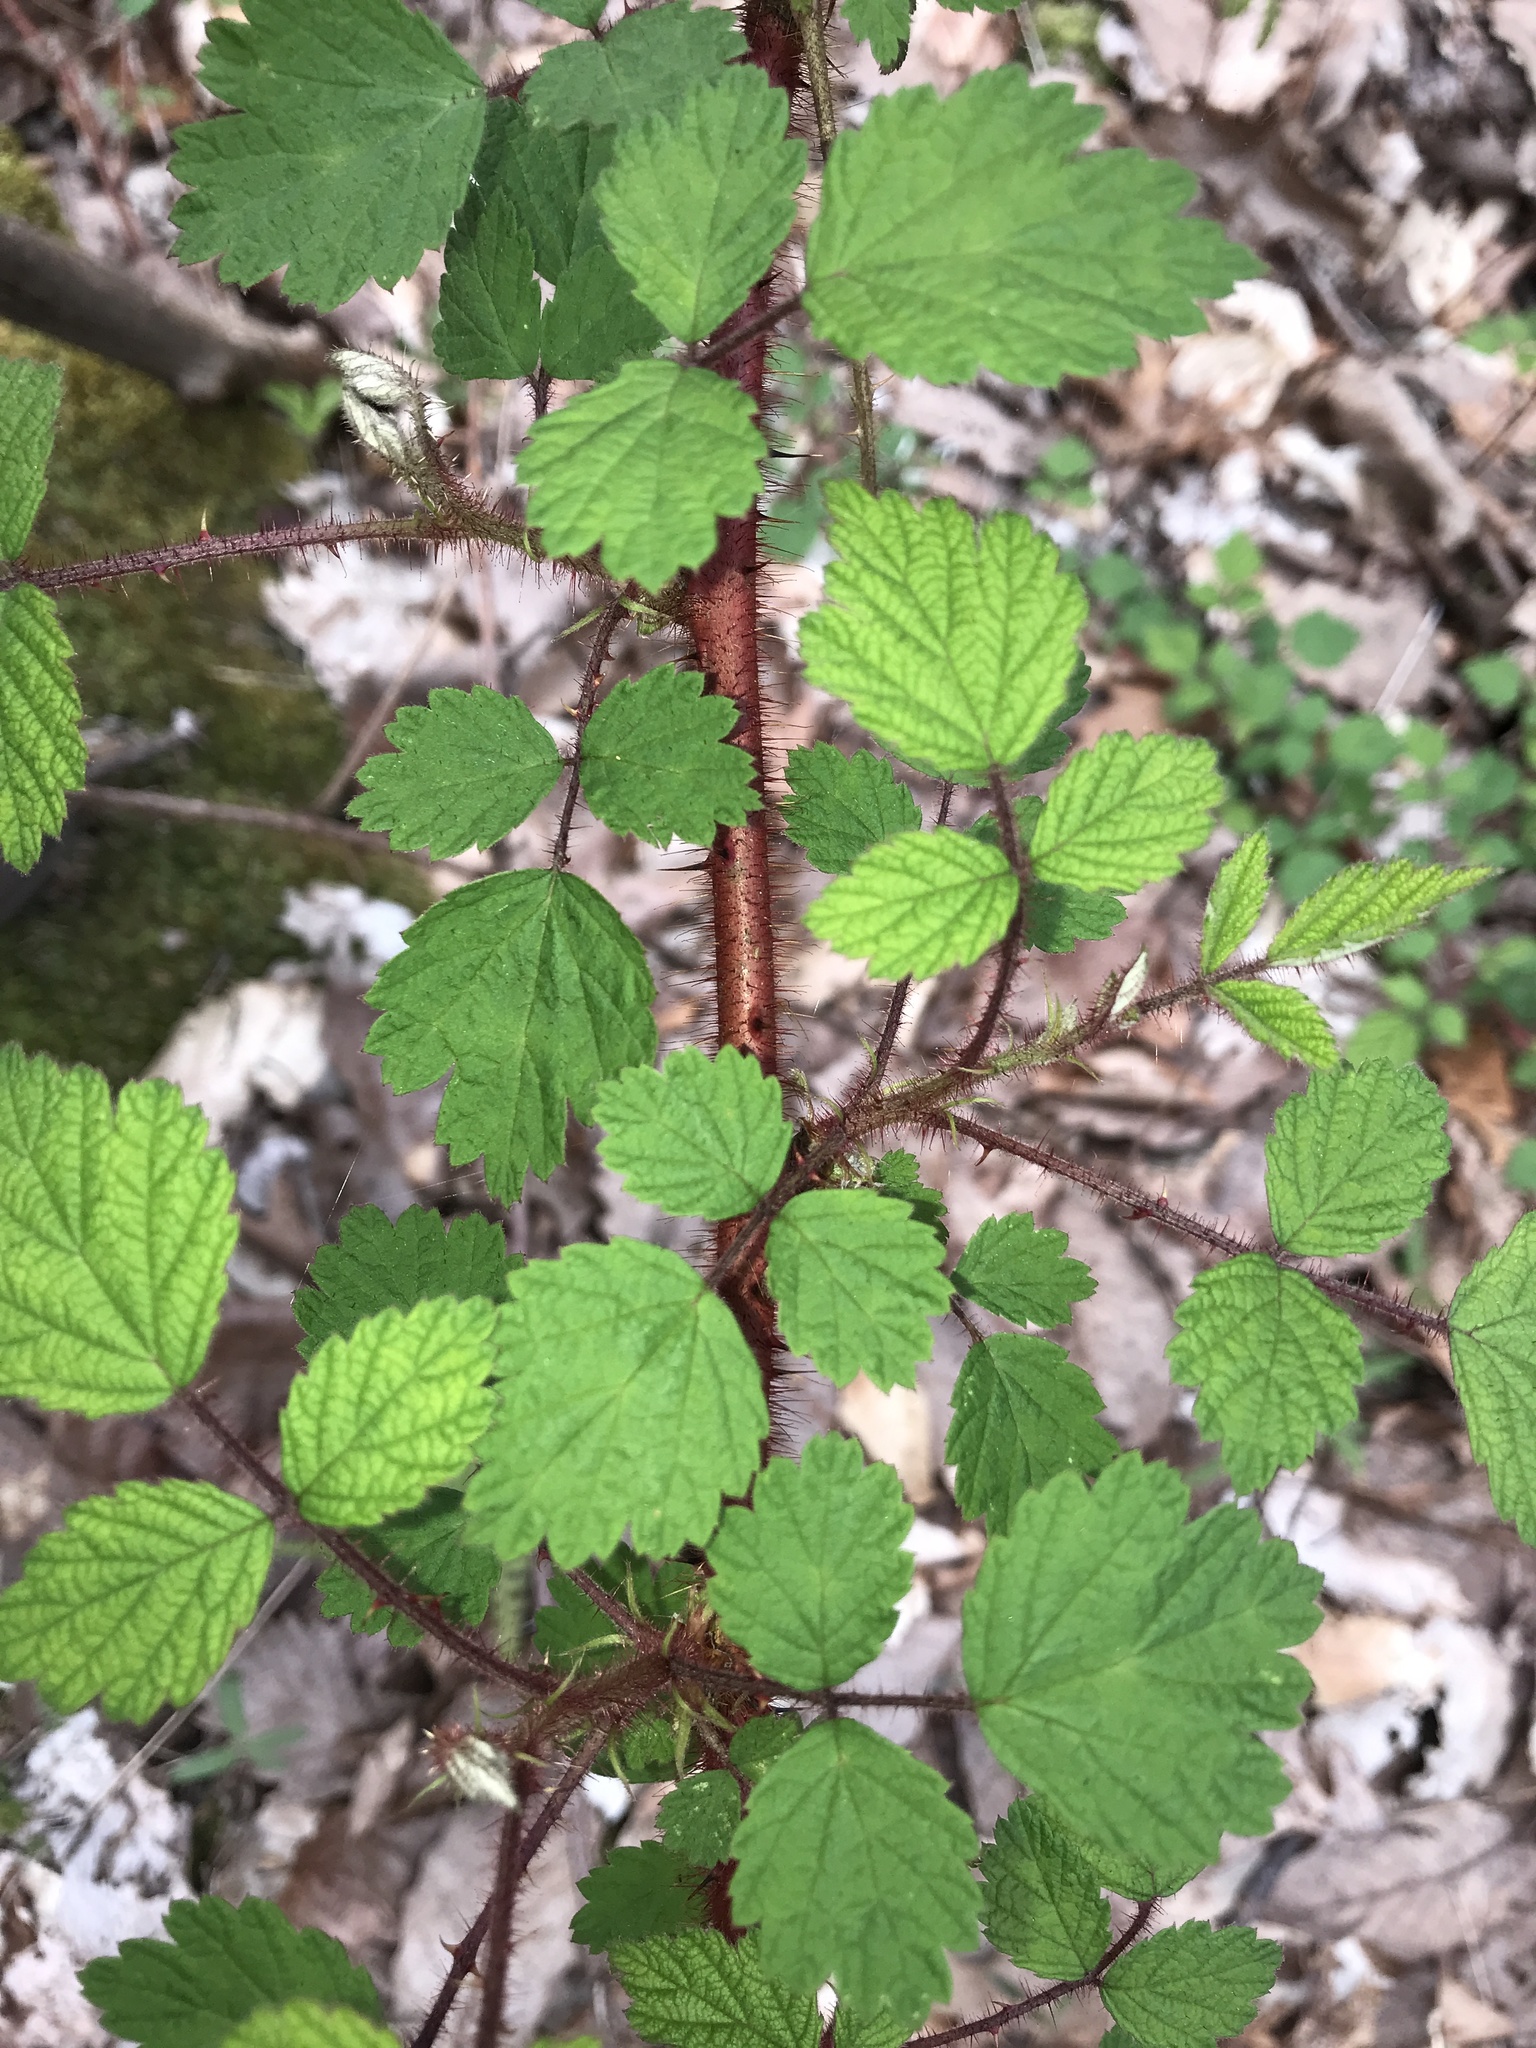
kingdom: Plantae
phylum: Tracheophyta
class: Magnoliopsida
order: Rosales
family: Rosaceae
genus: Rubus
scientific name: Rubus phoenicolasius
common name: Japanese wineberry
